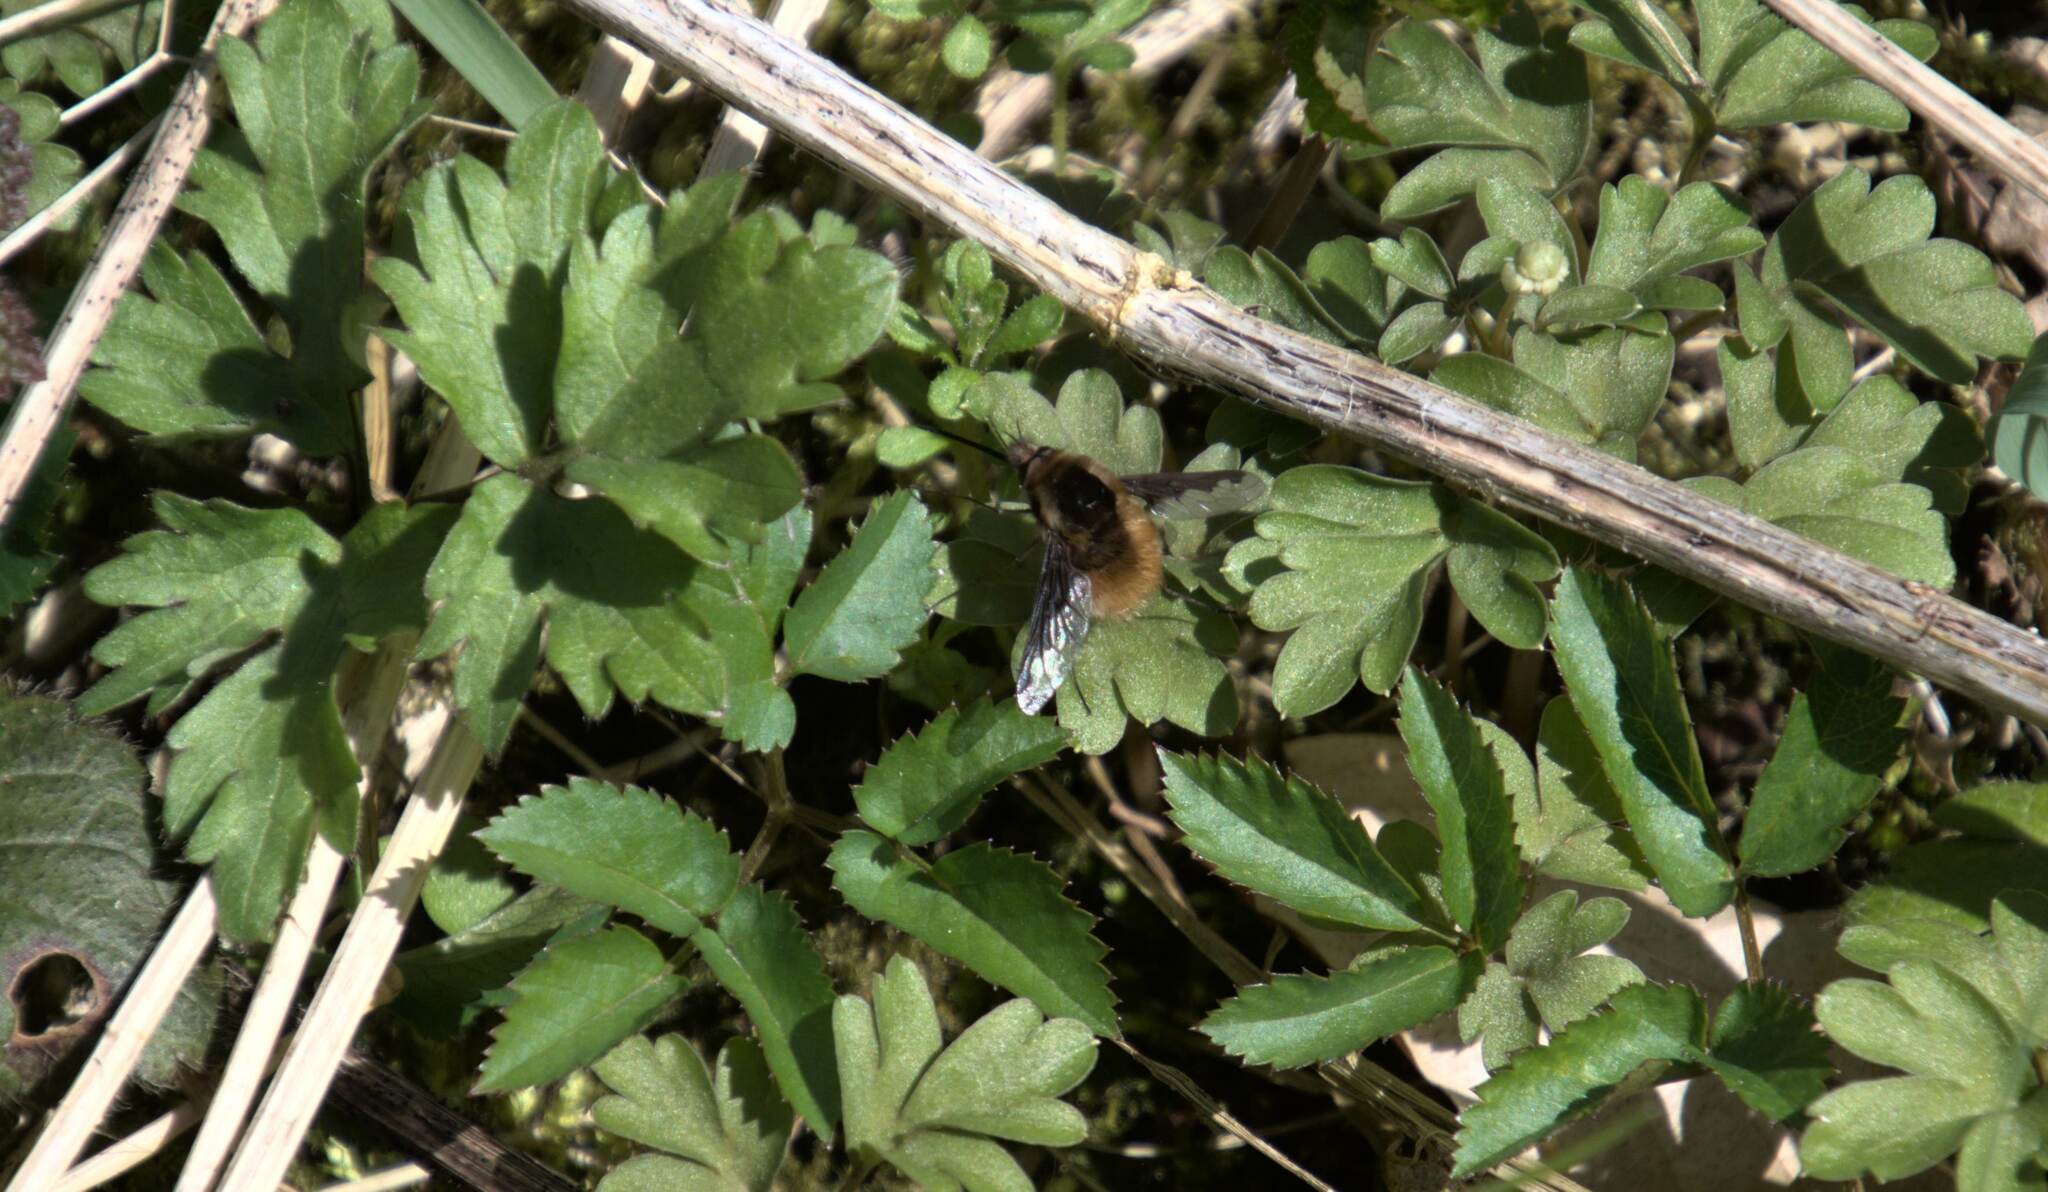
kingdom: Animalia
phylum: Arthropoda
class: Insecta
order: Diptera
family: Bombyliidae
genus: Bombylius
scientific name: Bombylius major
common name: Bee fly
